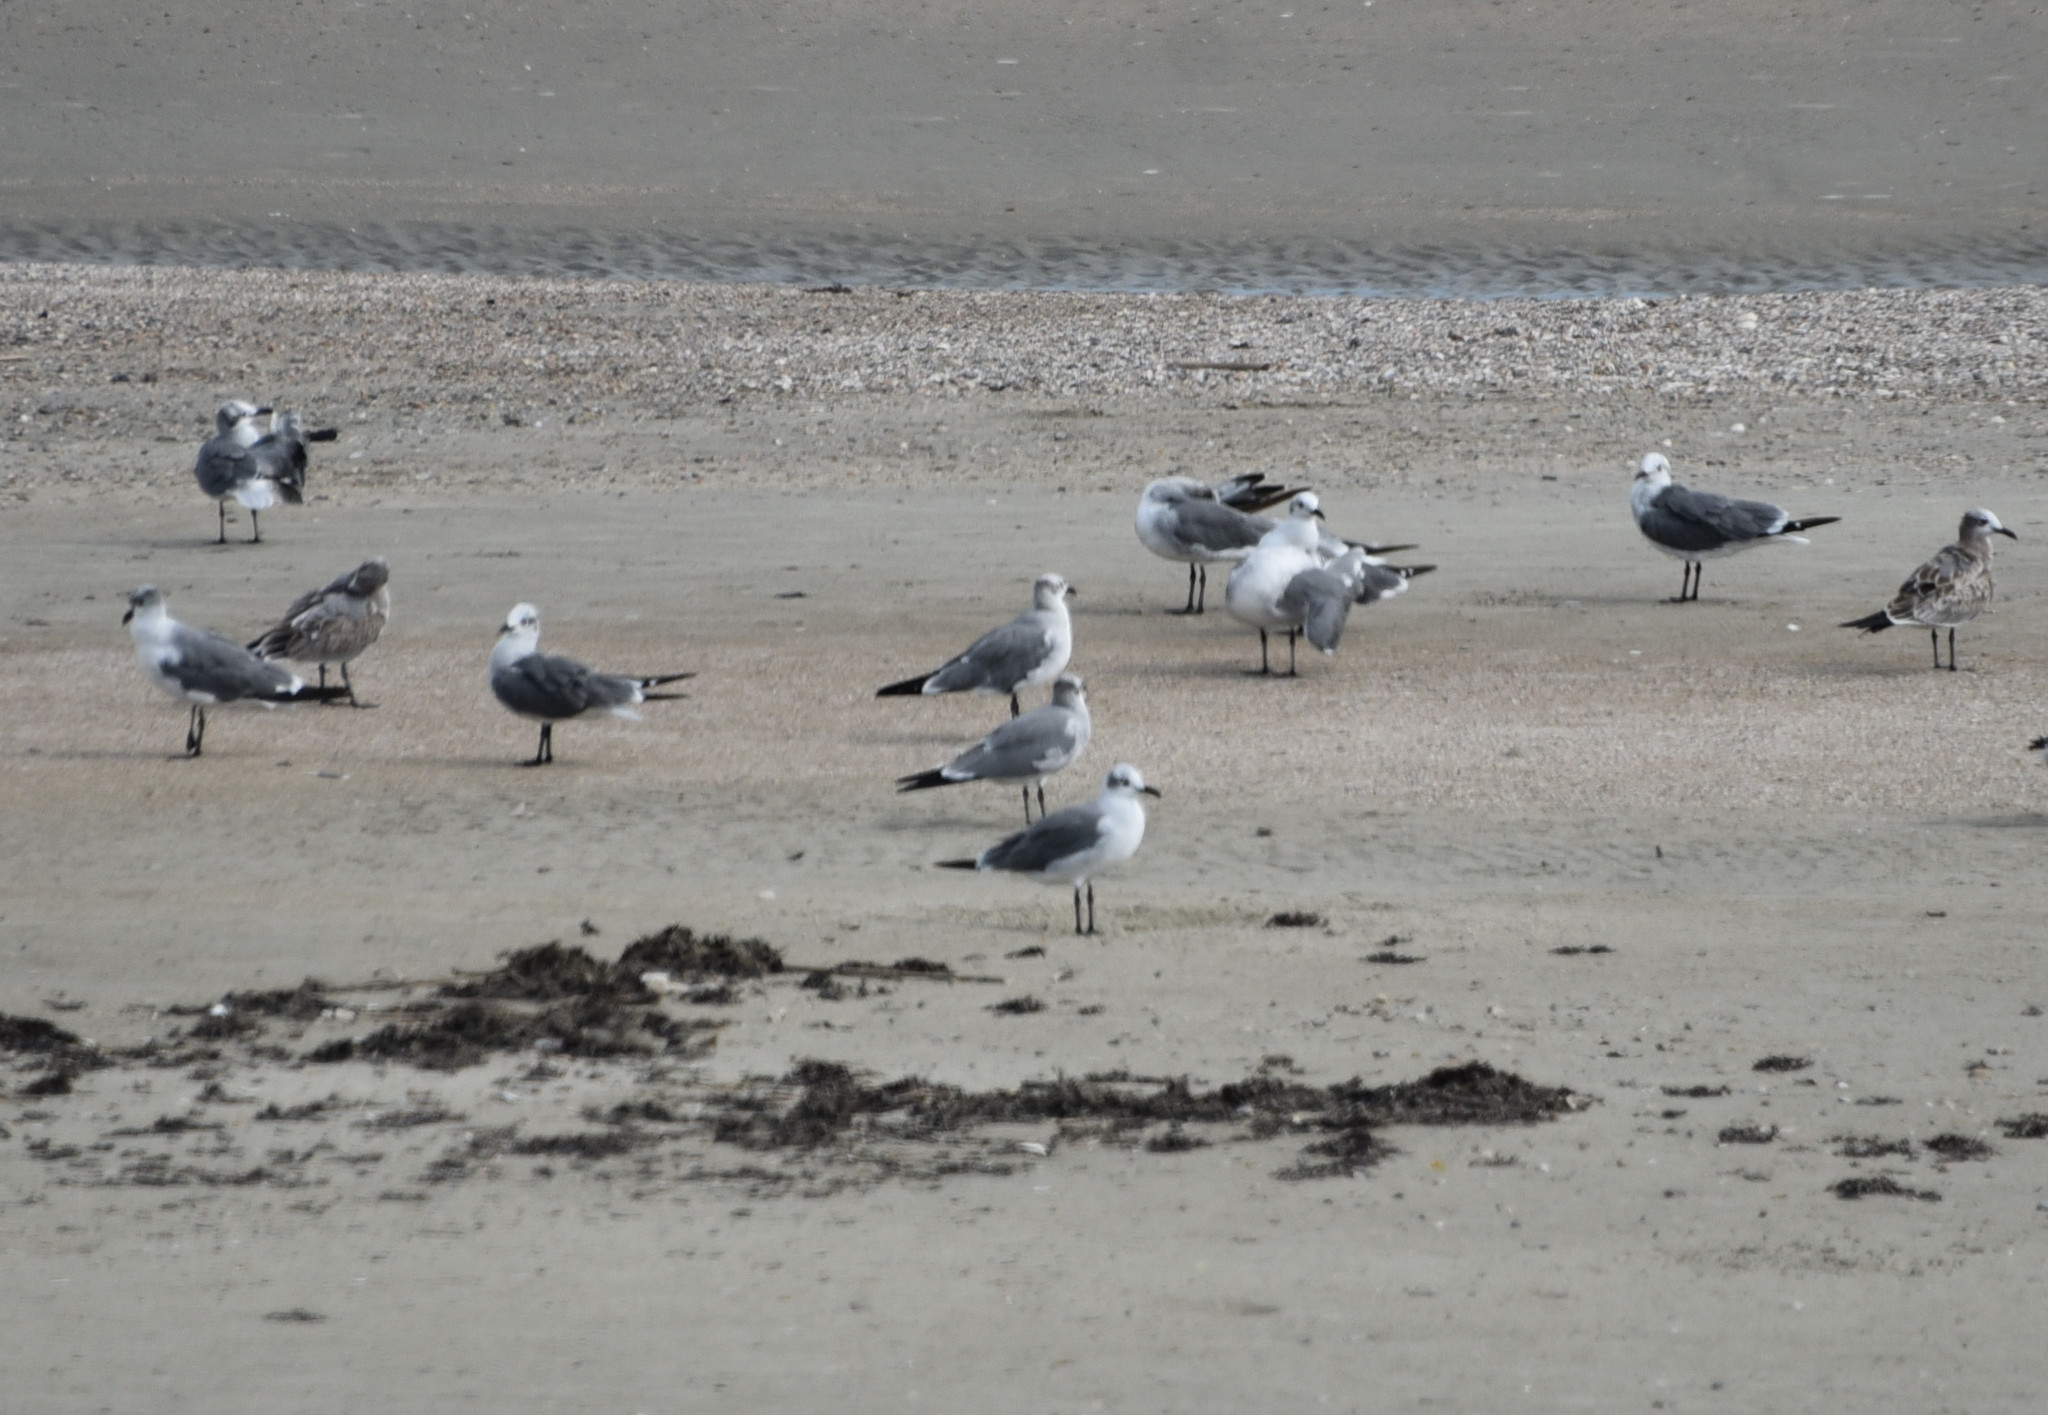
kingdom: Animalia
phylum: Chordata
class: Aves
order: Charadriiformes
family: Laridae
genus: Leucophaeus
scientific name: Leucophaeus atricilla
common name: Laughing gull
